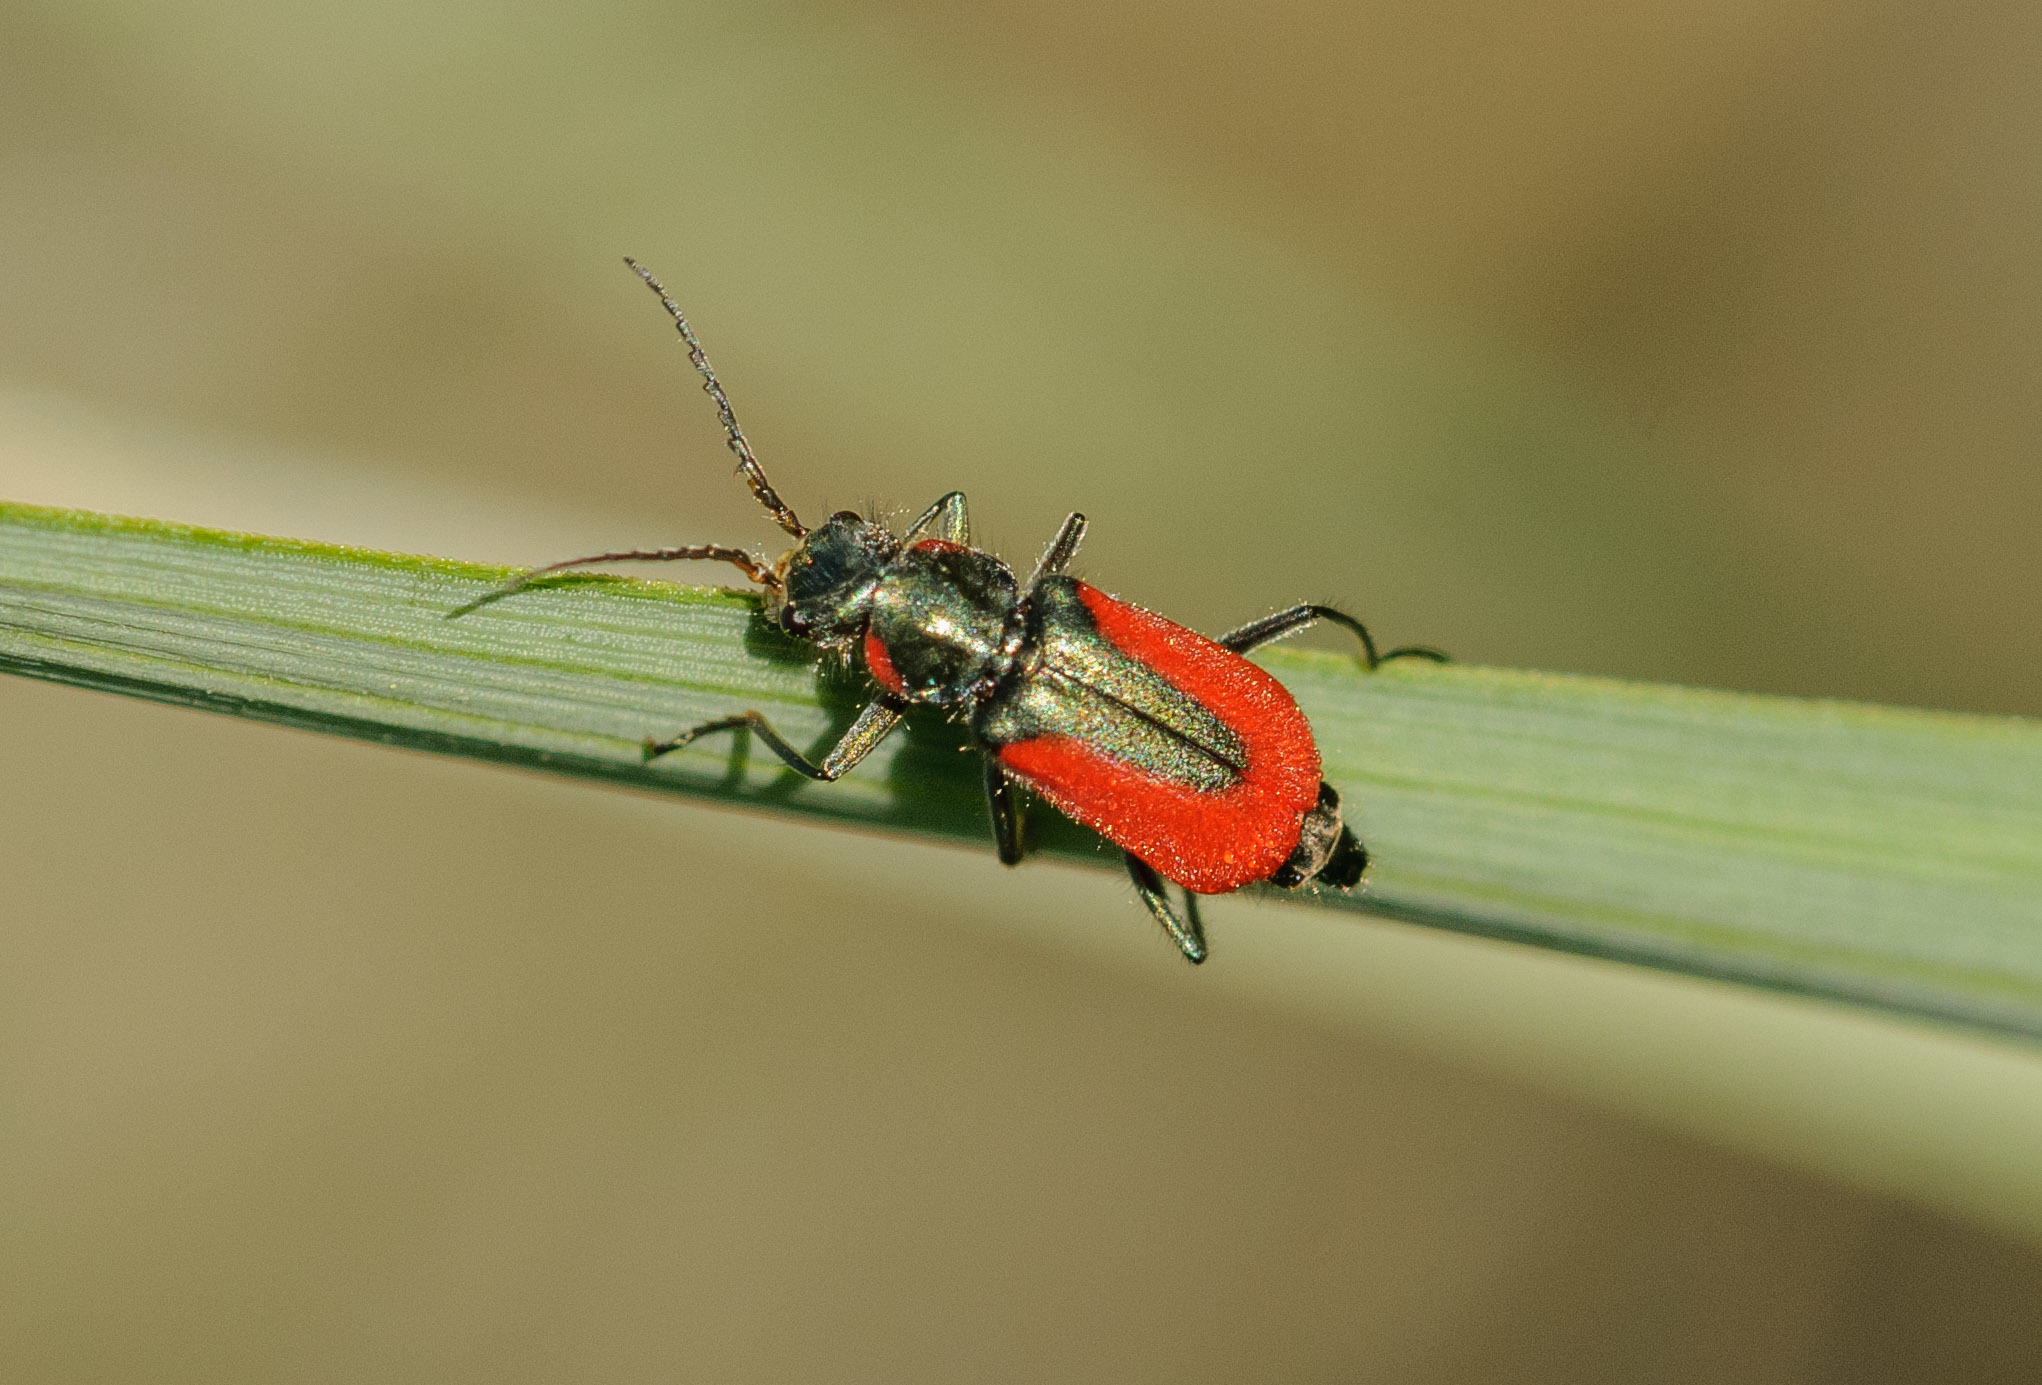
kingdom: Animalia
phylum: Arthropoda
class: Insecta
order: Coleoptera
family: Melyridae
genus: Malachius
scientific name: Malachius aeneus
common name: Scarlet malachite beetle
